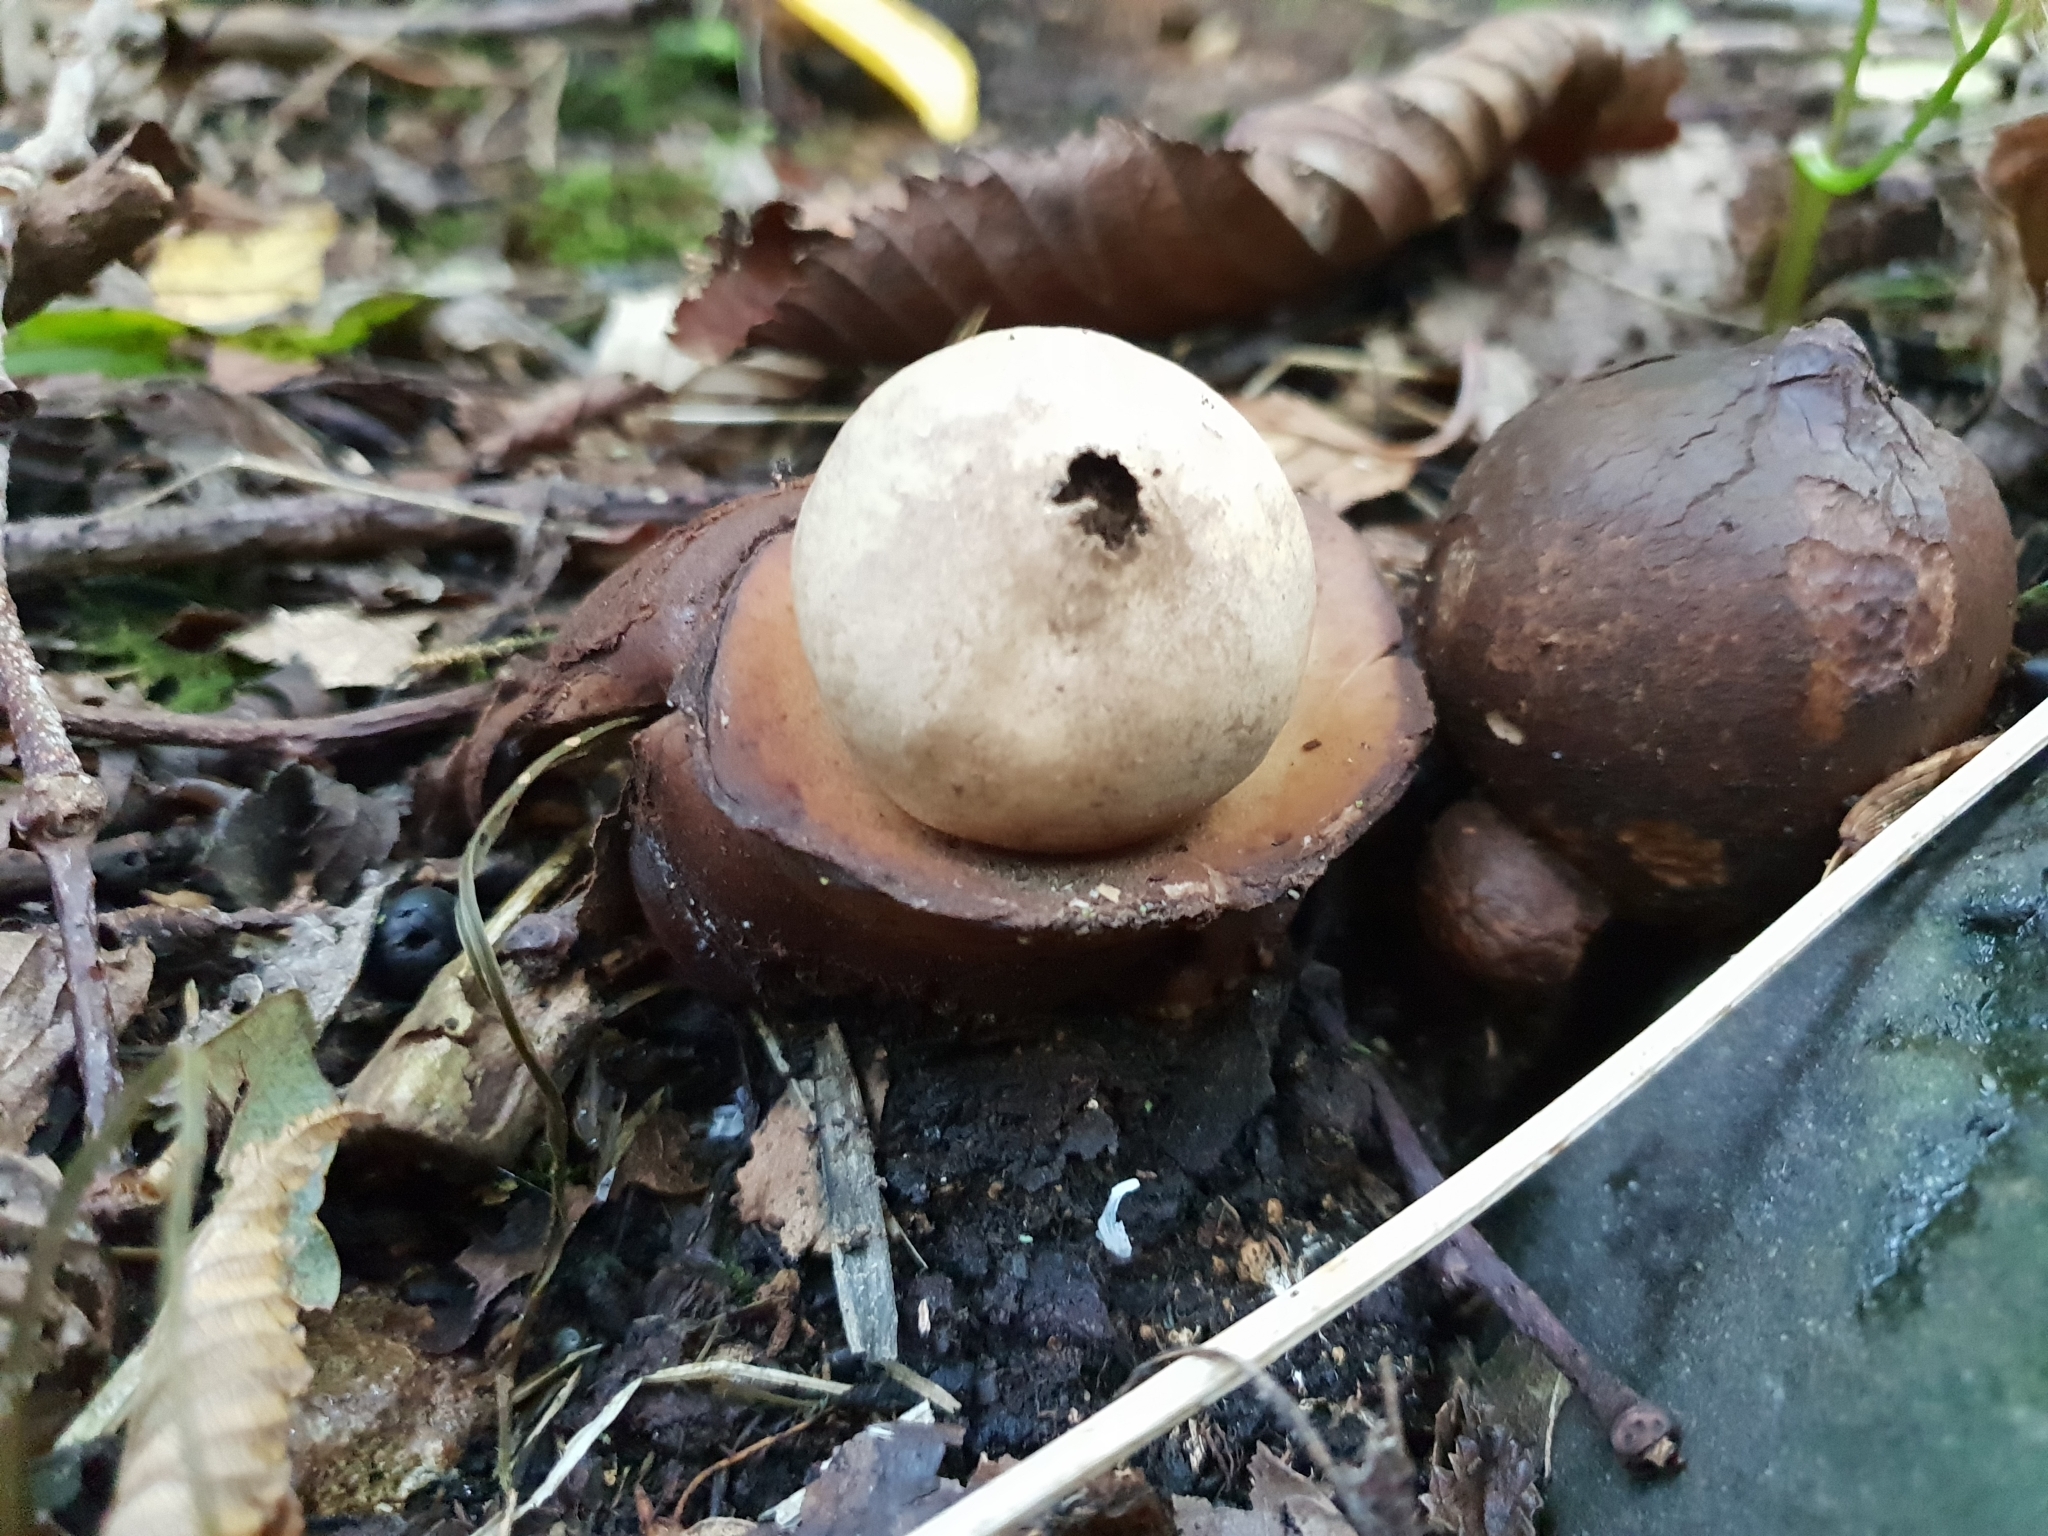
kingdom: Fungi
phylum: Basidiomycota
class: Agaricomycetes
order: Geastrales
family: Geastraceae
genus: Geastrum
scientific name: Geastrum triplex
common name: Collared earthstar
